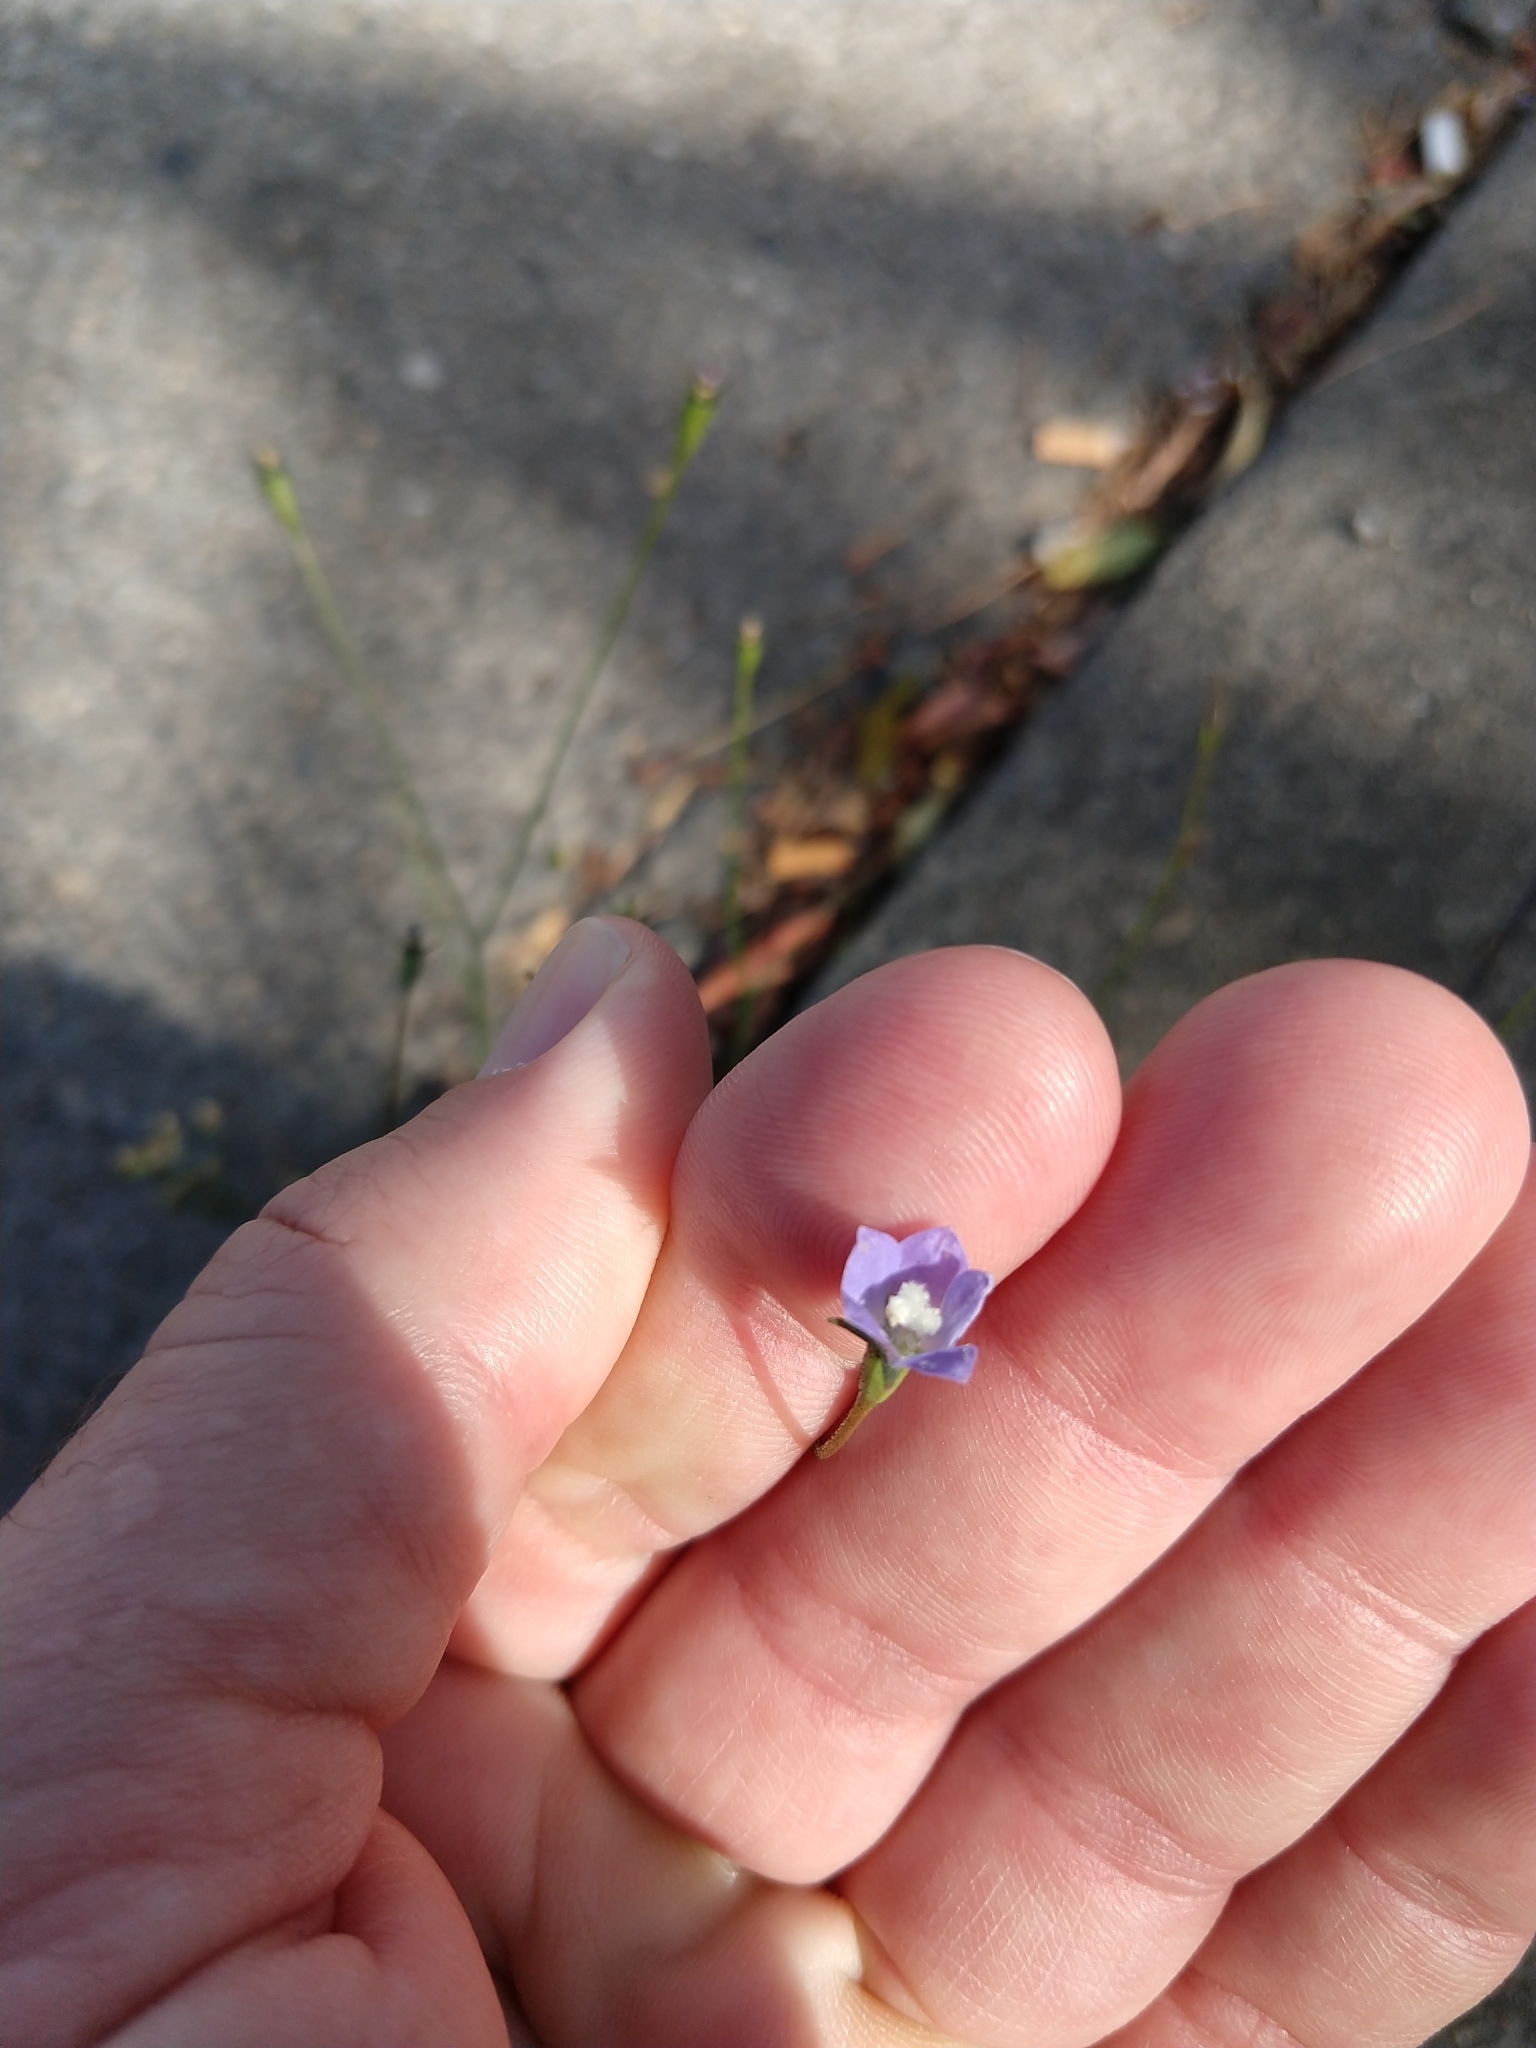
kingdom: Plantae
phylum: Tracheophyta
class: Magnoliopsida
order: Asterales
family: Campanulaceae
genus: Wahlenbergia
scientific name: Wahlenbergia marginata
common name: Southern rockbell
